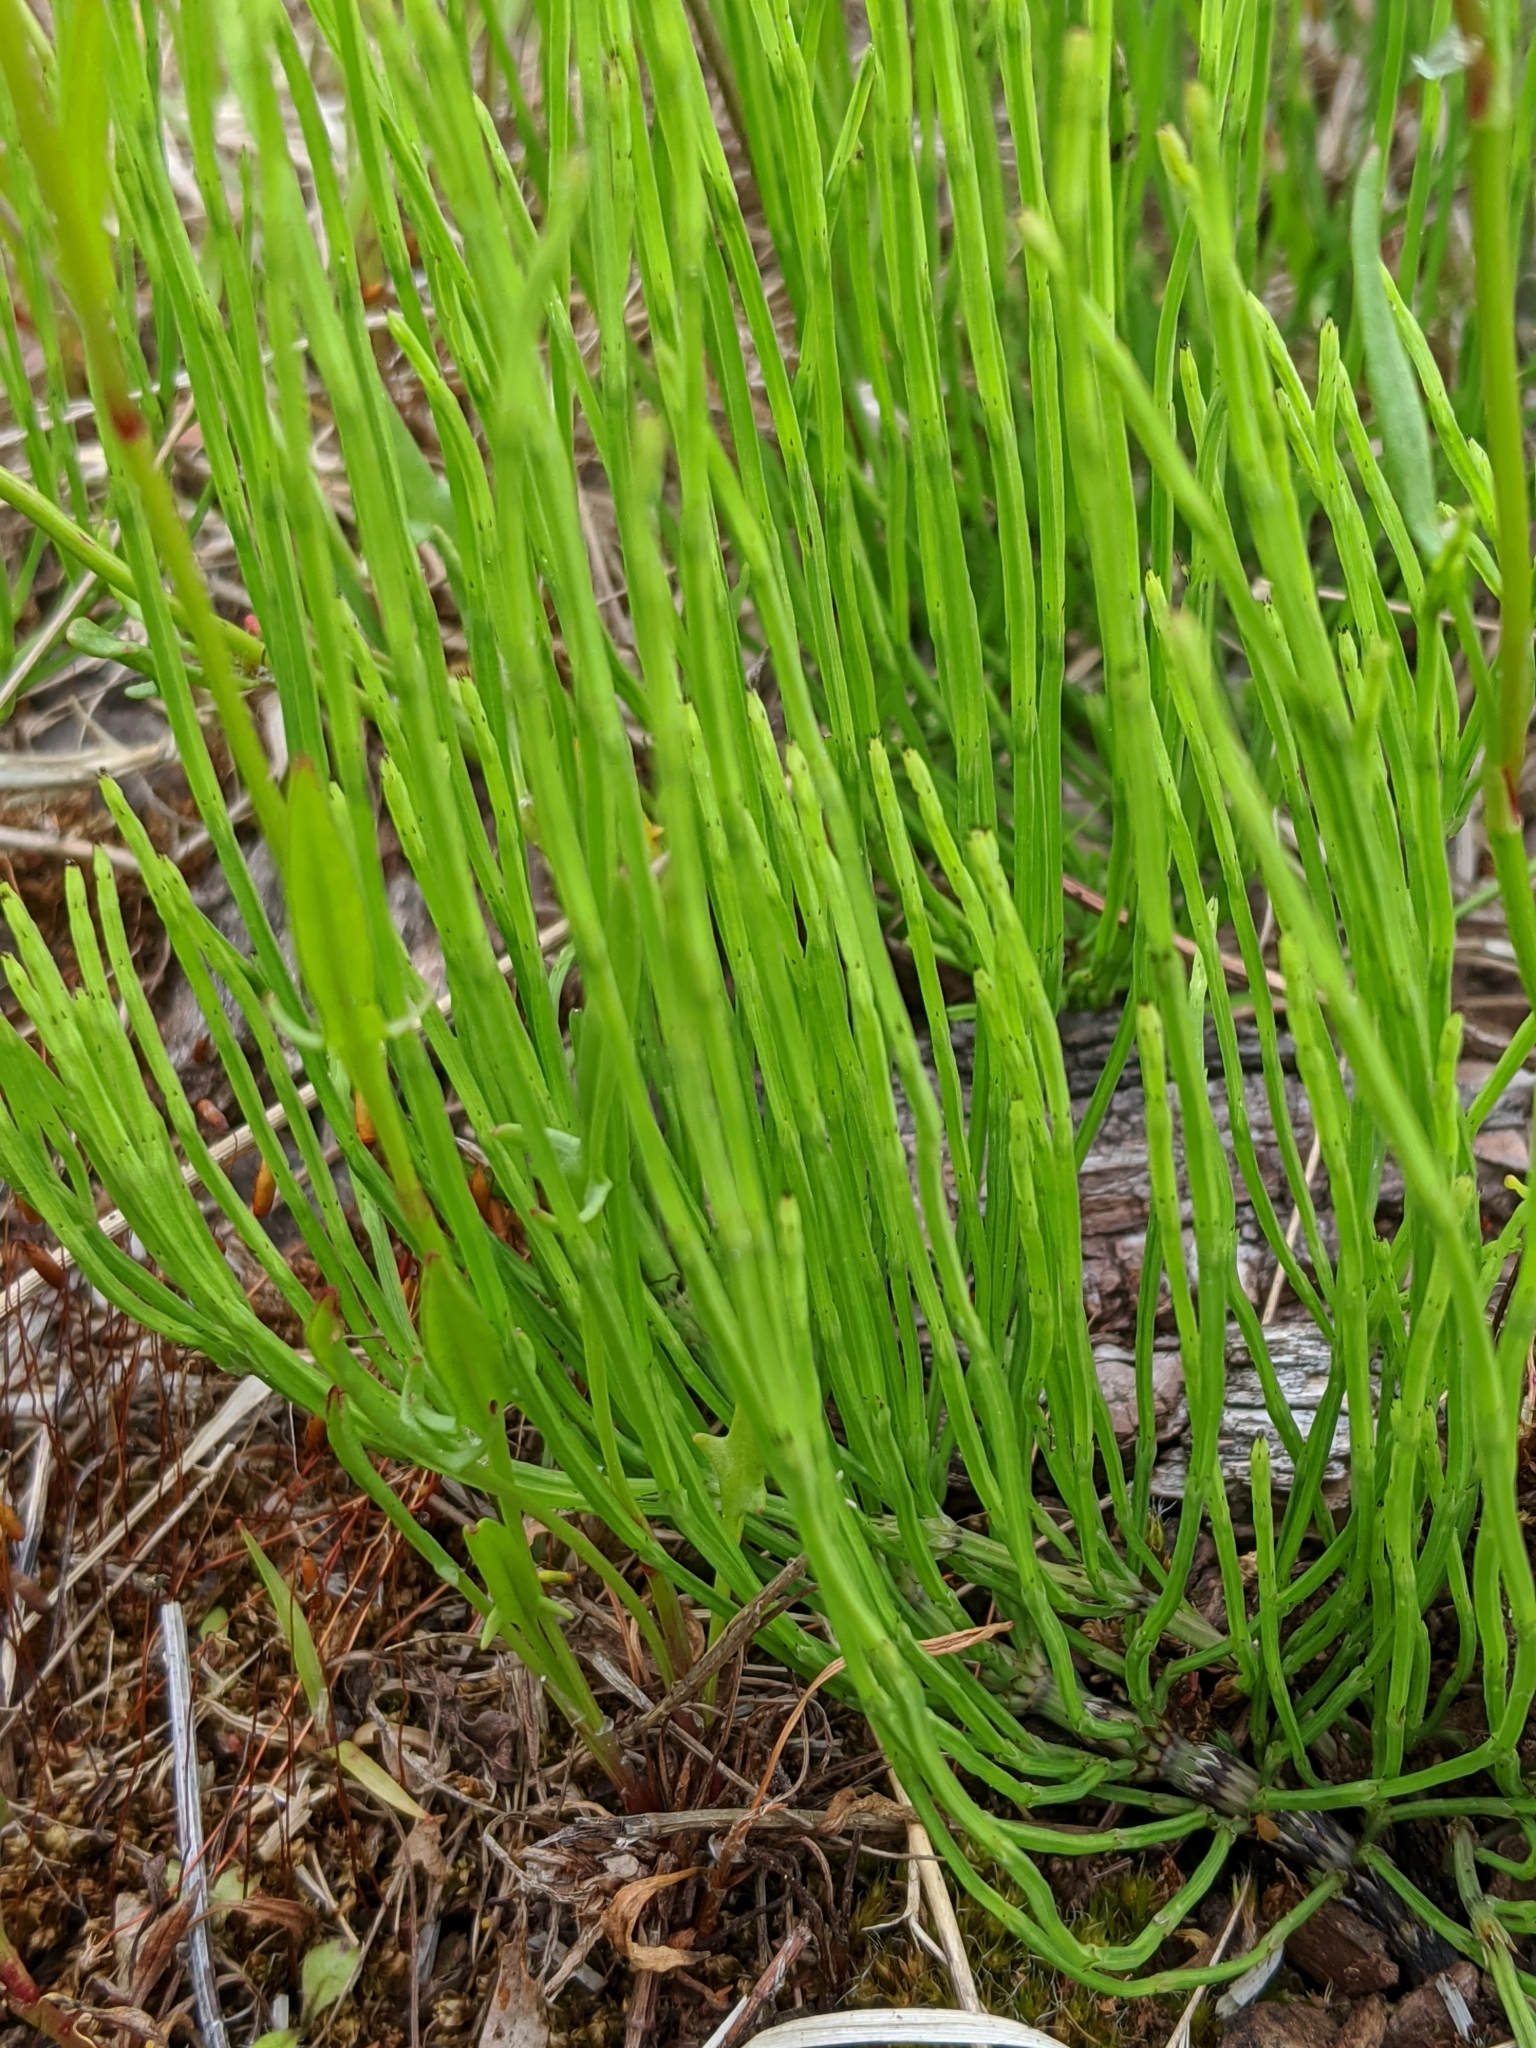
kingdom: Plantae
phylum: Tracheophyta
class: Polypodiopsida
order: Equisetales
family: Equisetaceae
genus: Equisetum
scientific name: Equisetum arvense
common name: Field horsetail
